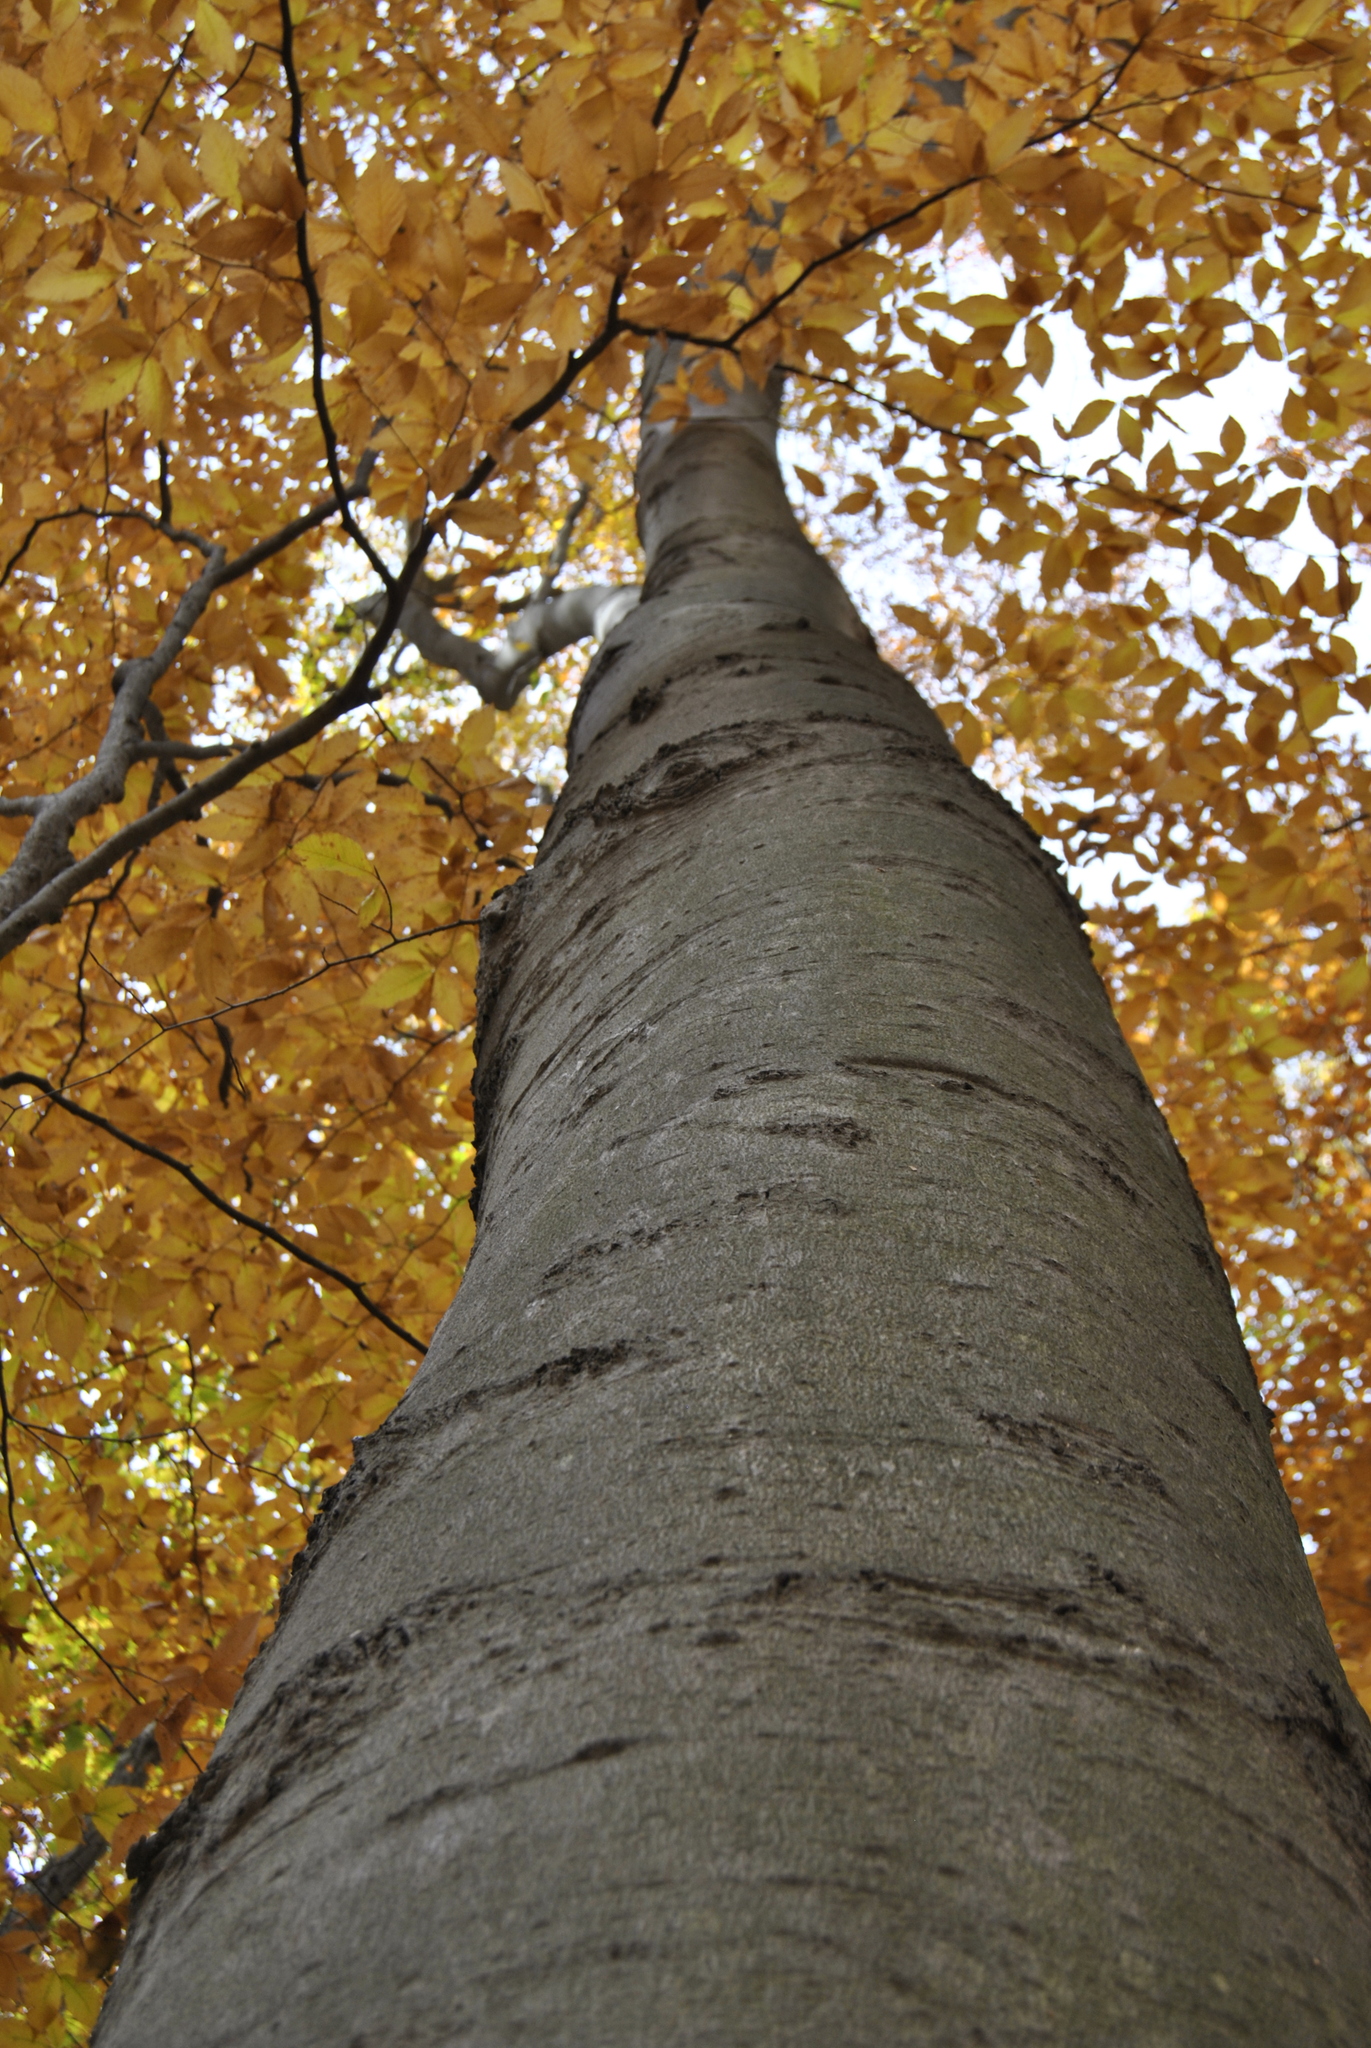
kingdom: Plantae
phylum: Tracheophyta
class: Magnoliopsida
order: Fagales
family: Fagaceae
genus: Fagus
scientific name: Fagus grandifolia
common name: American beech
